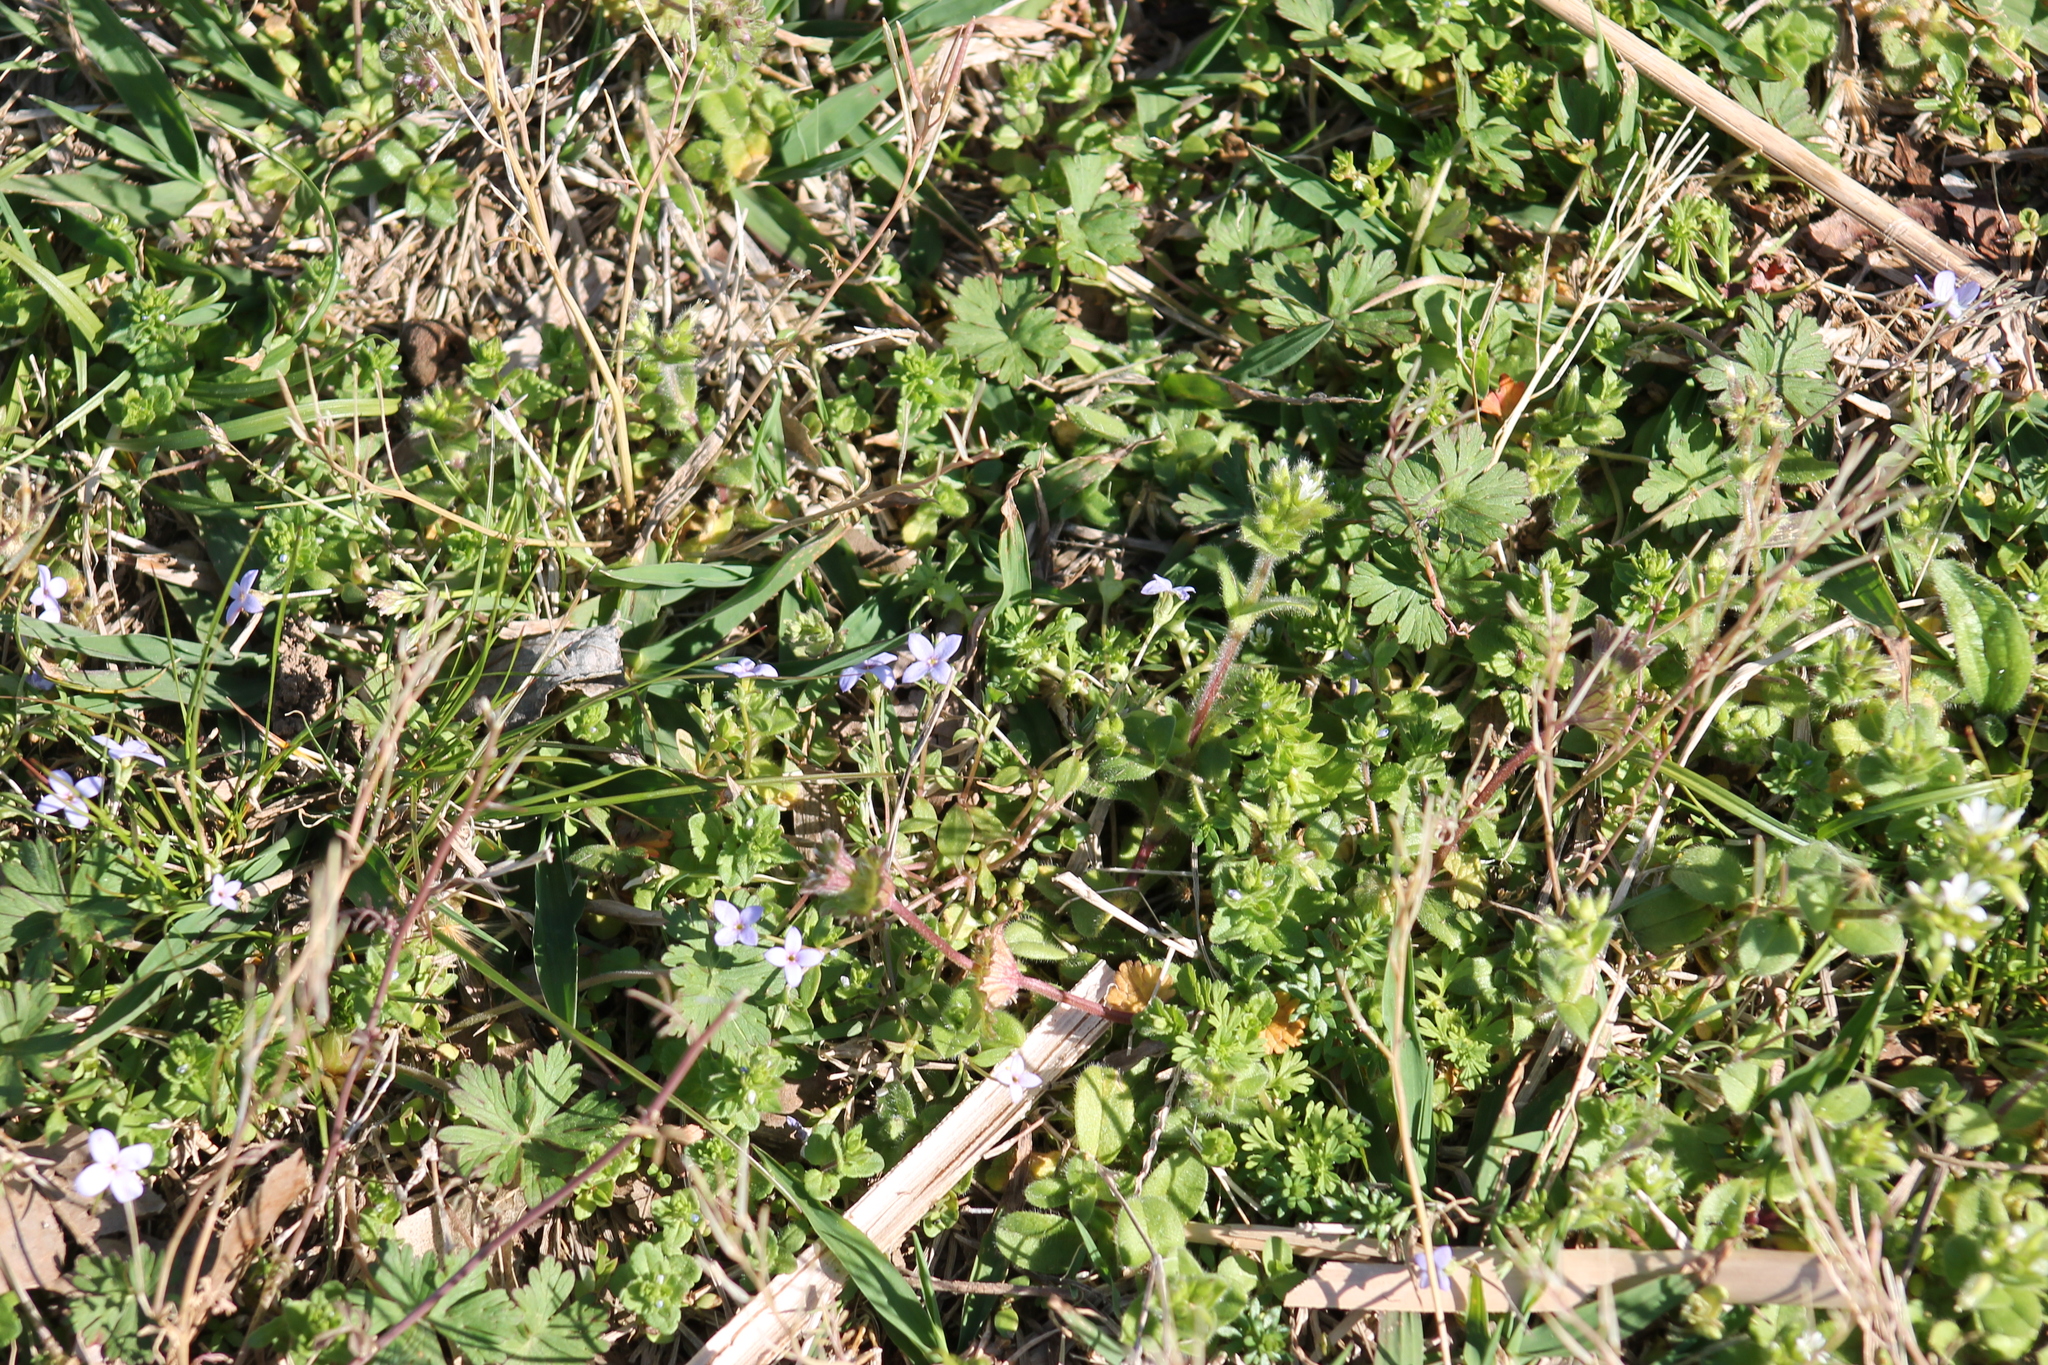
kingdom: Plantae
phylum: Tracheophyta
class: Magnoliopsida
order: Gentianales
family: Rubiaceae
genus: Houstonia
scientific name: Houstonia pusilla
